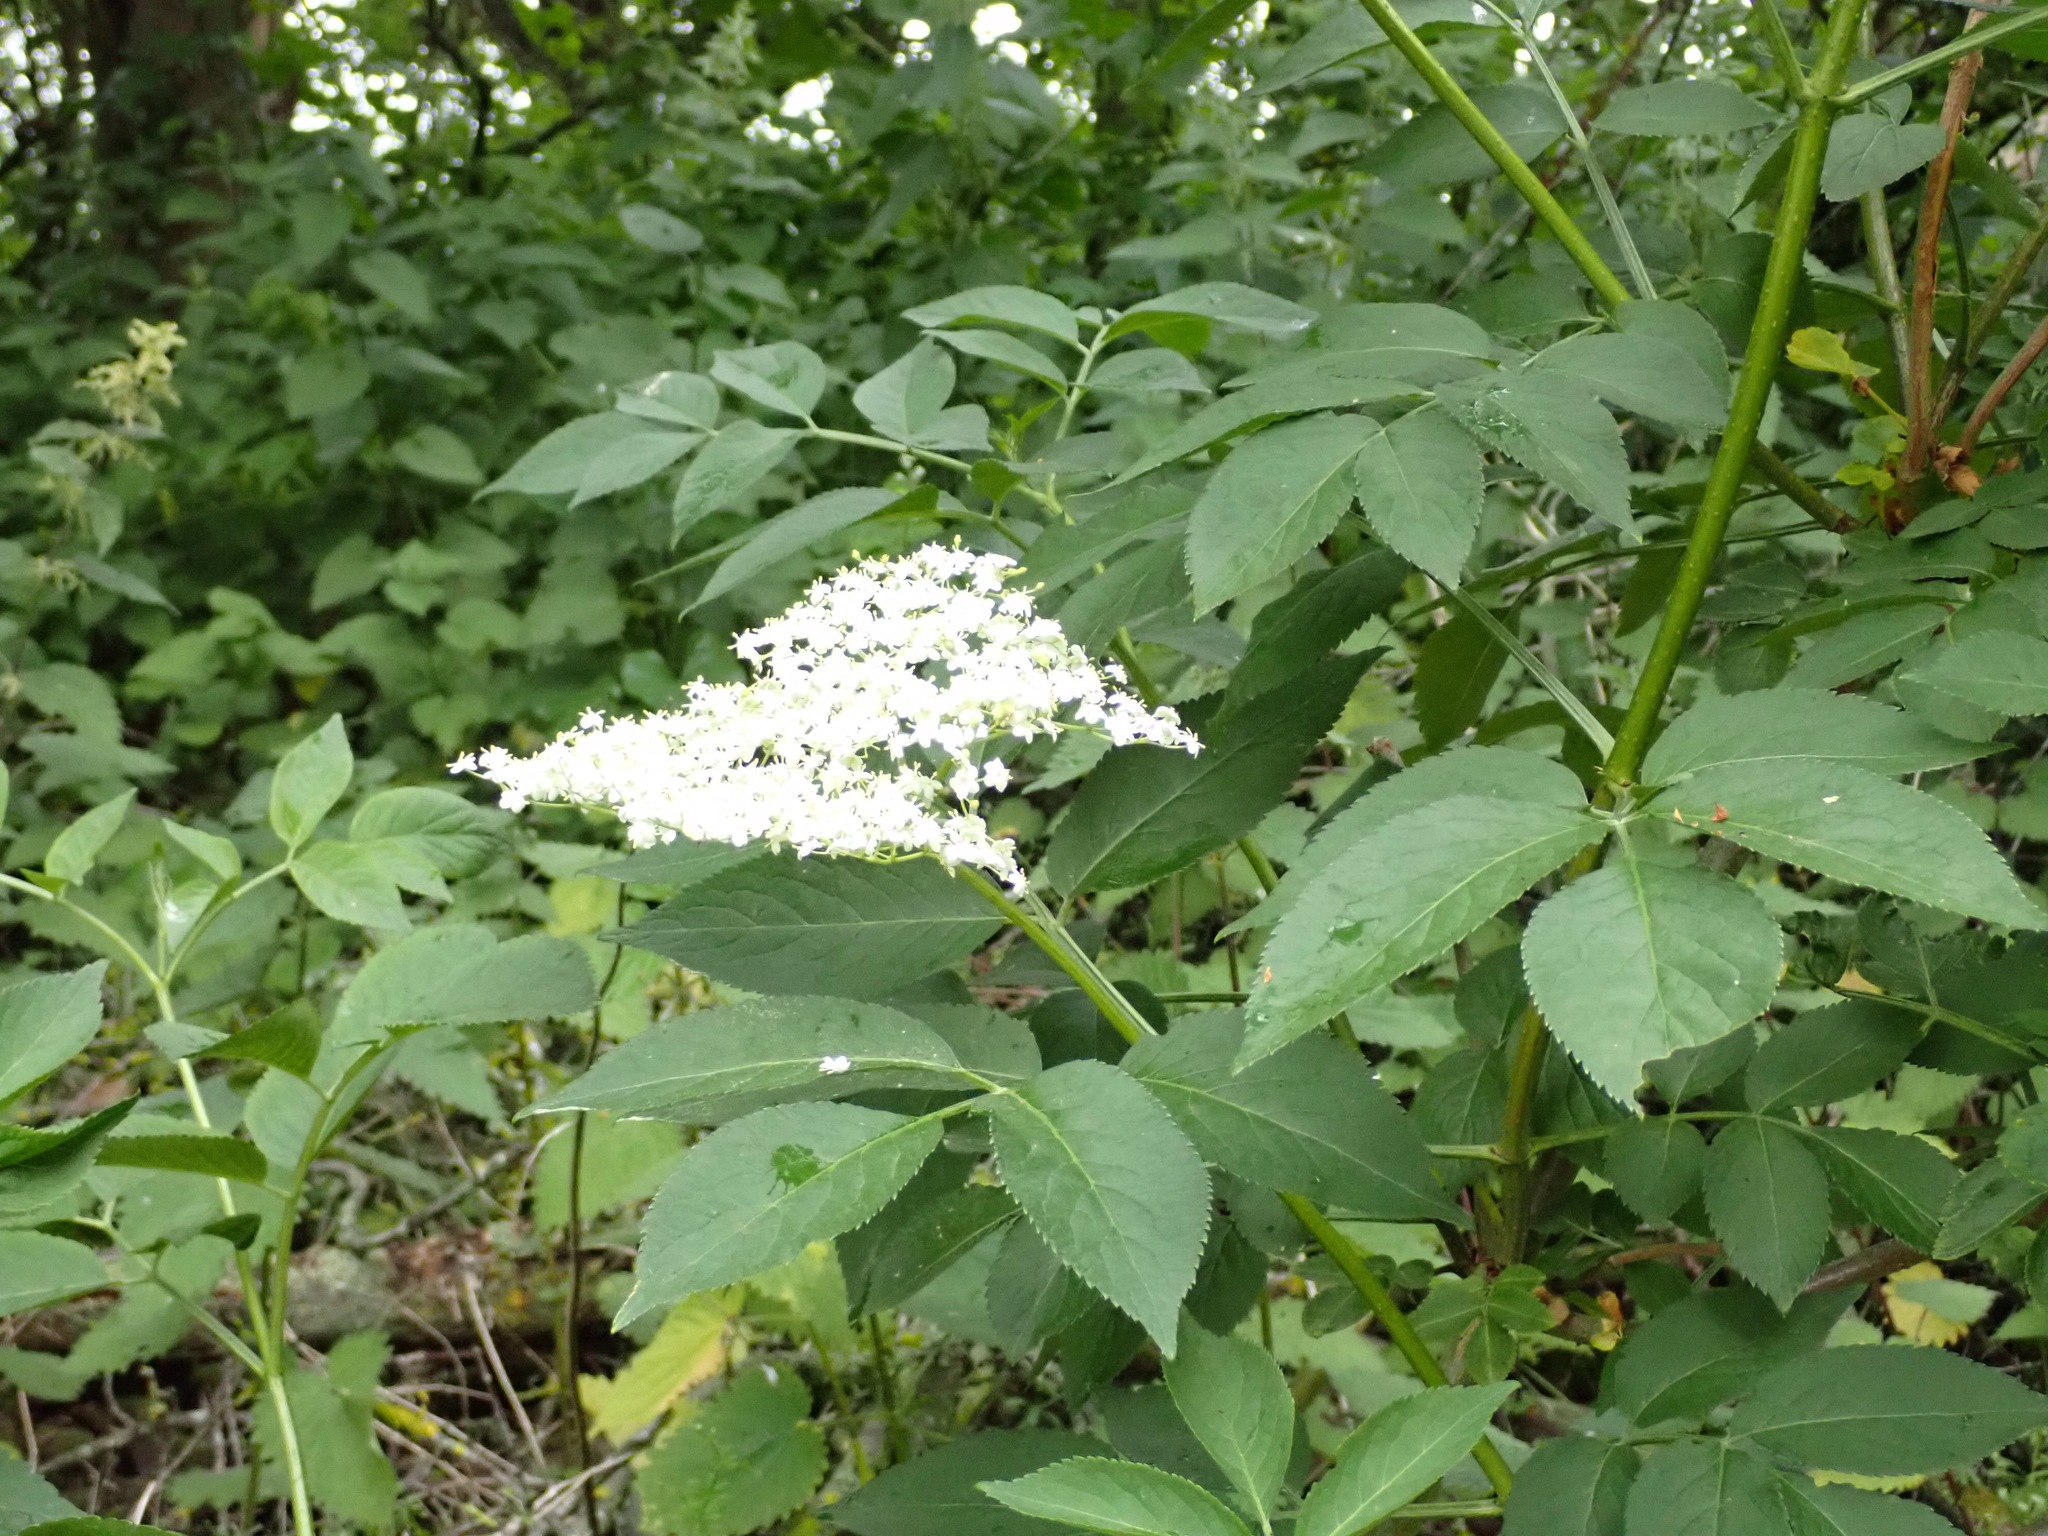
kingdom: Plantae
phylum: Tracheophyta
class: Magnoliopsida
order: Dipsacales
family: Viburnaceae
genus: Sambucus
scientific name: Sambucus nigra
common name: Elder
